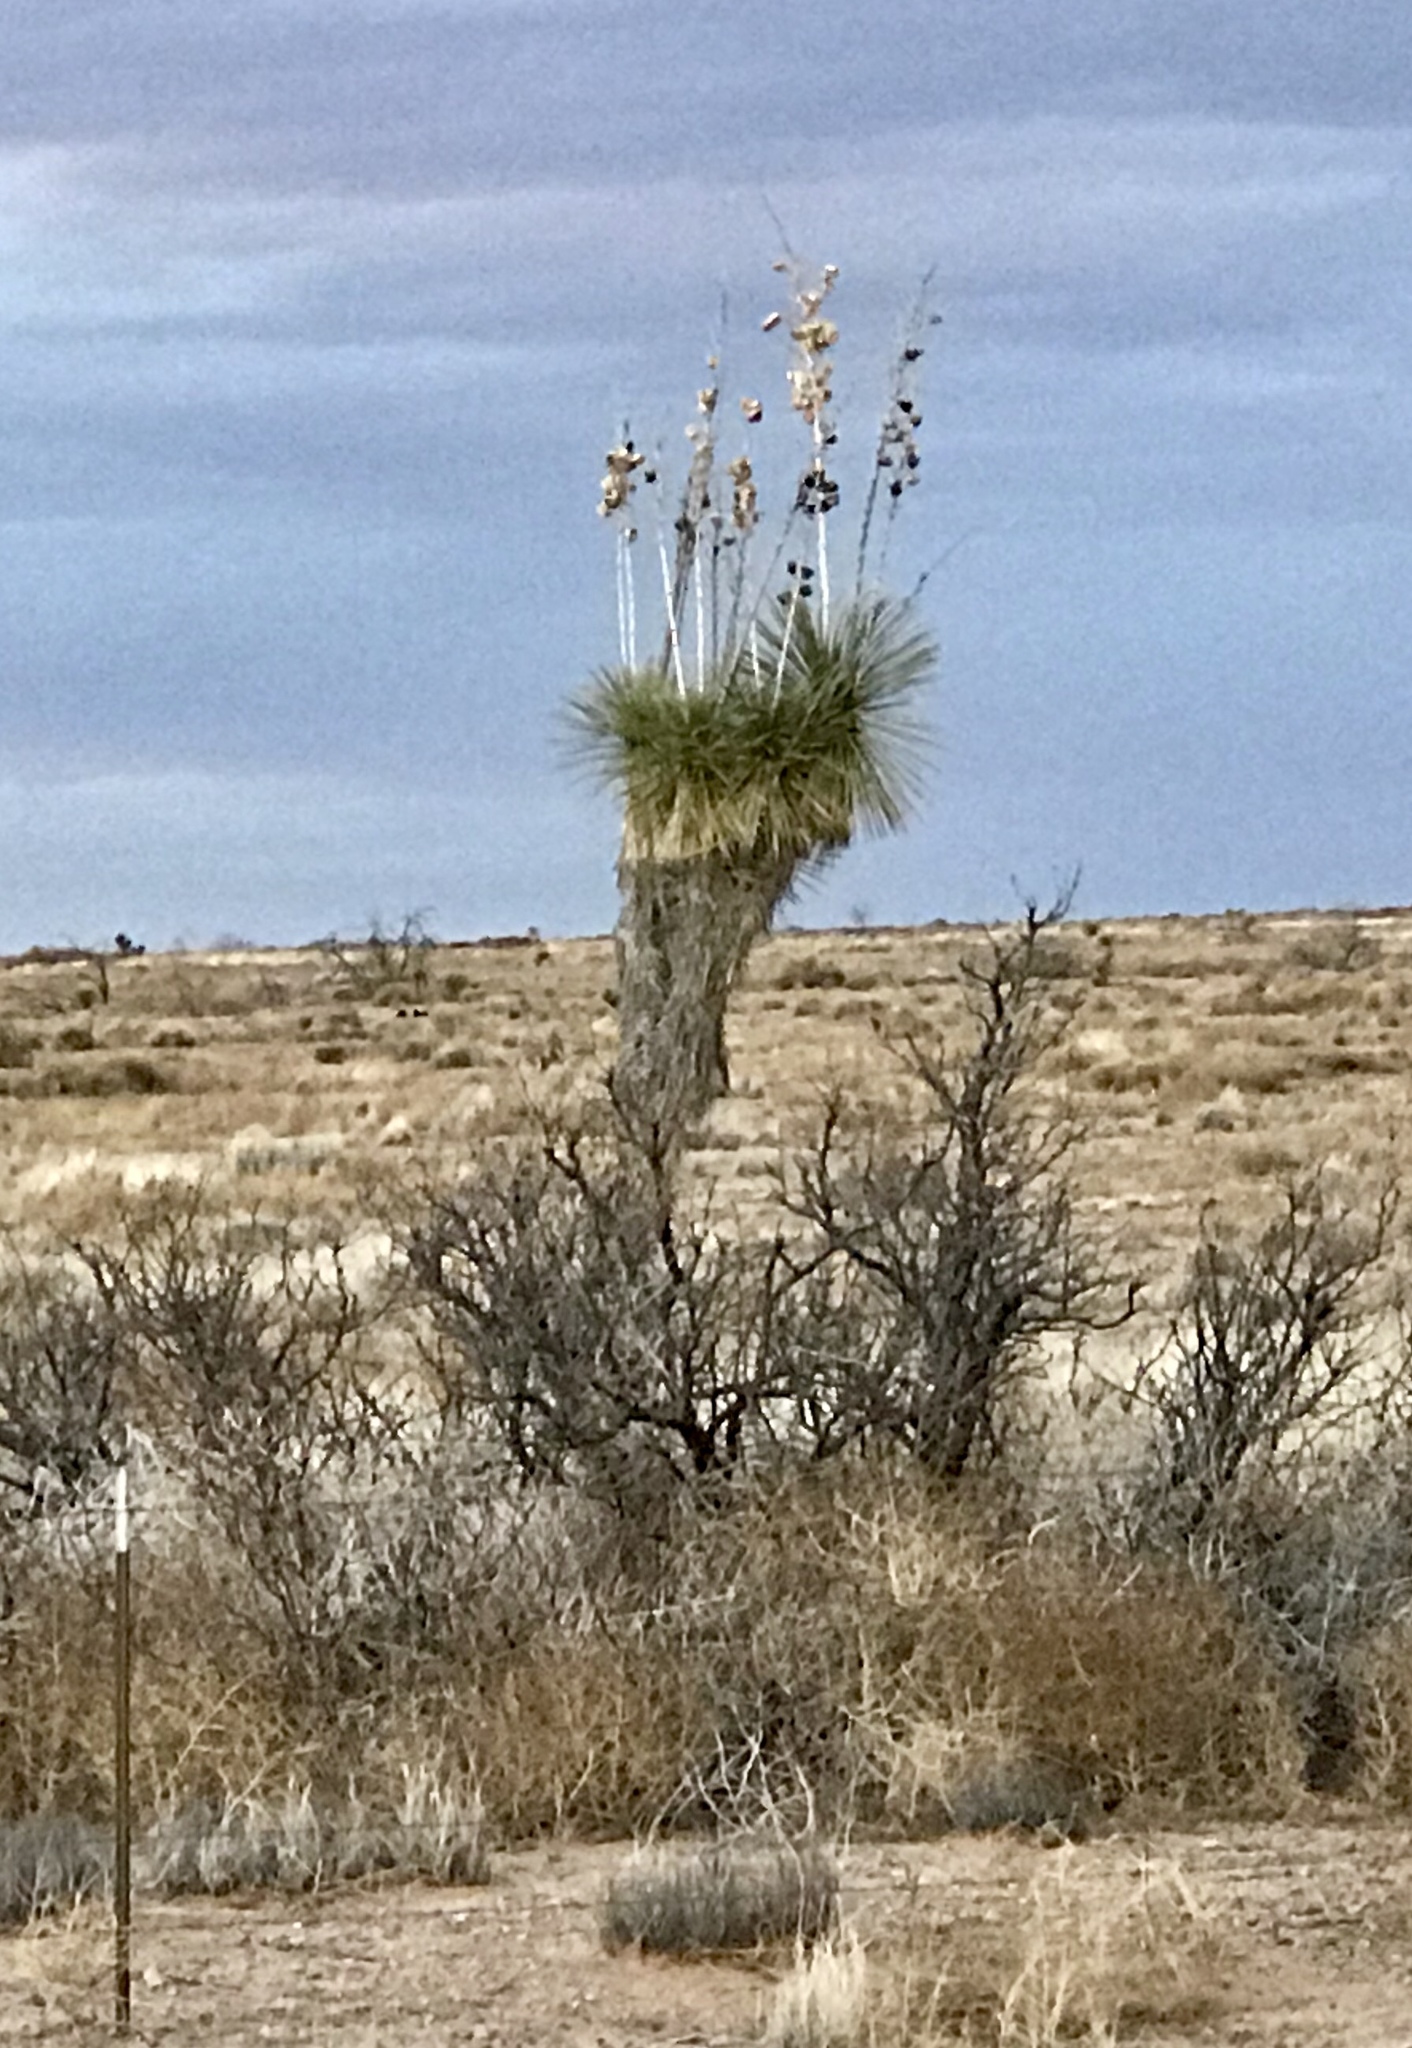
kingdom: Plantae
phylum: Tracheophyta
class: Liliopsida
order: Asparagales
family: Asparagaceae
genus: Yucca
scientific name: Yucca elata
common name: Palmella
